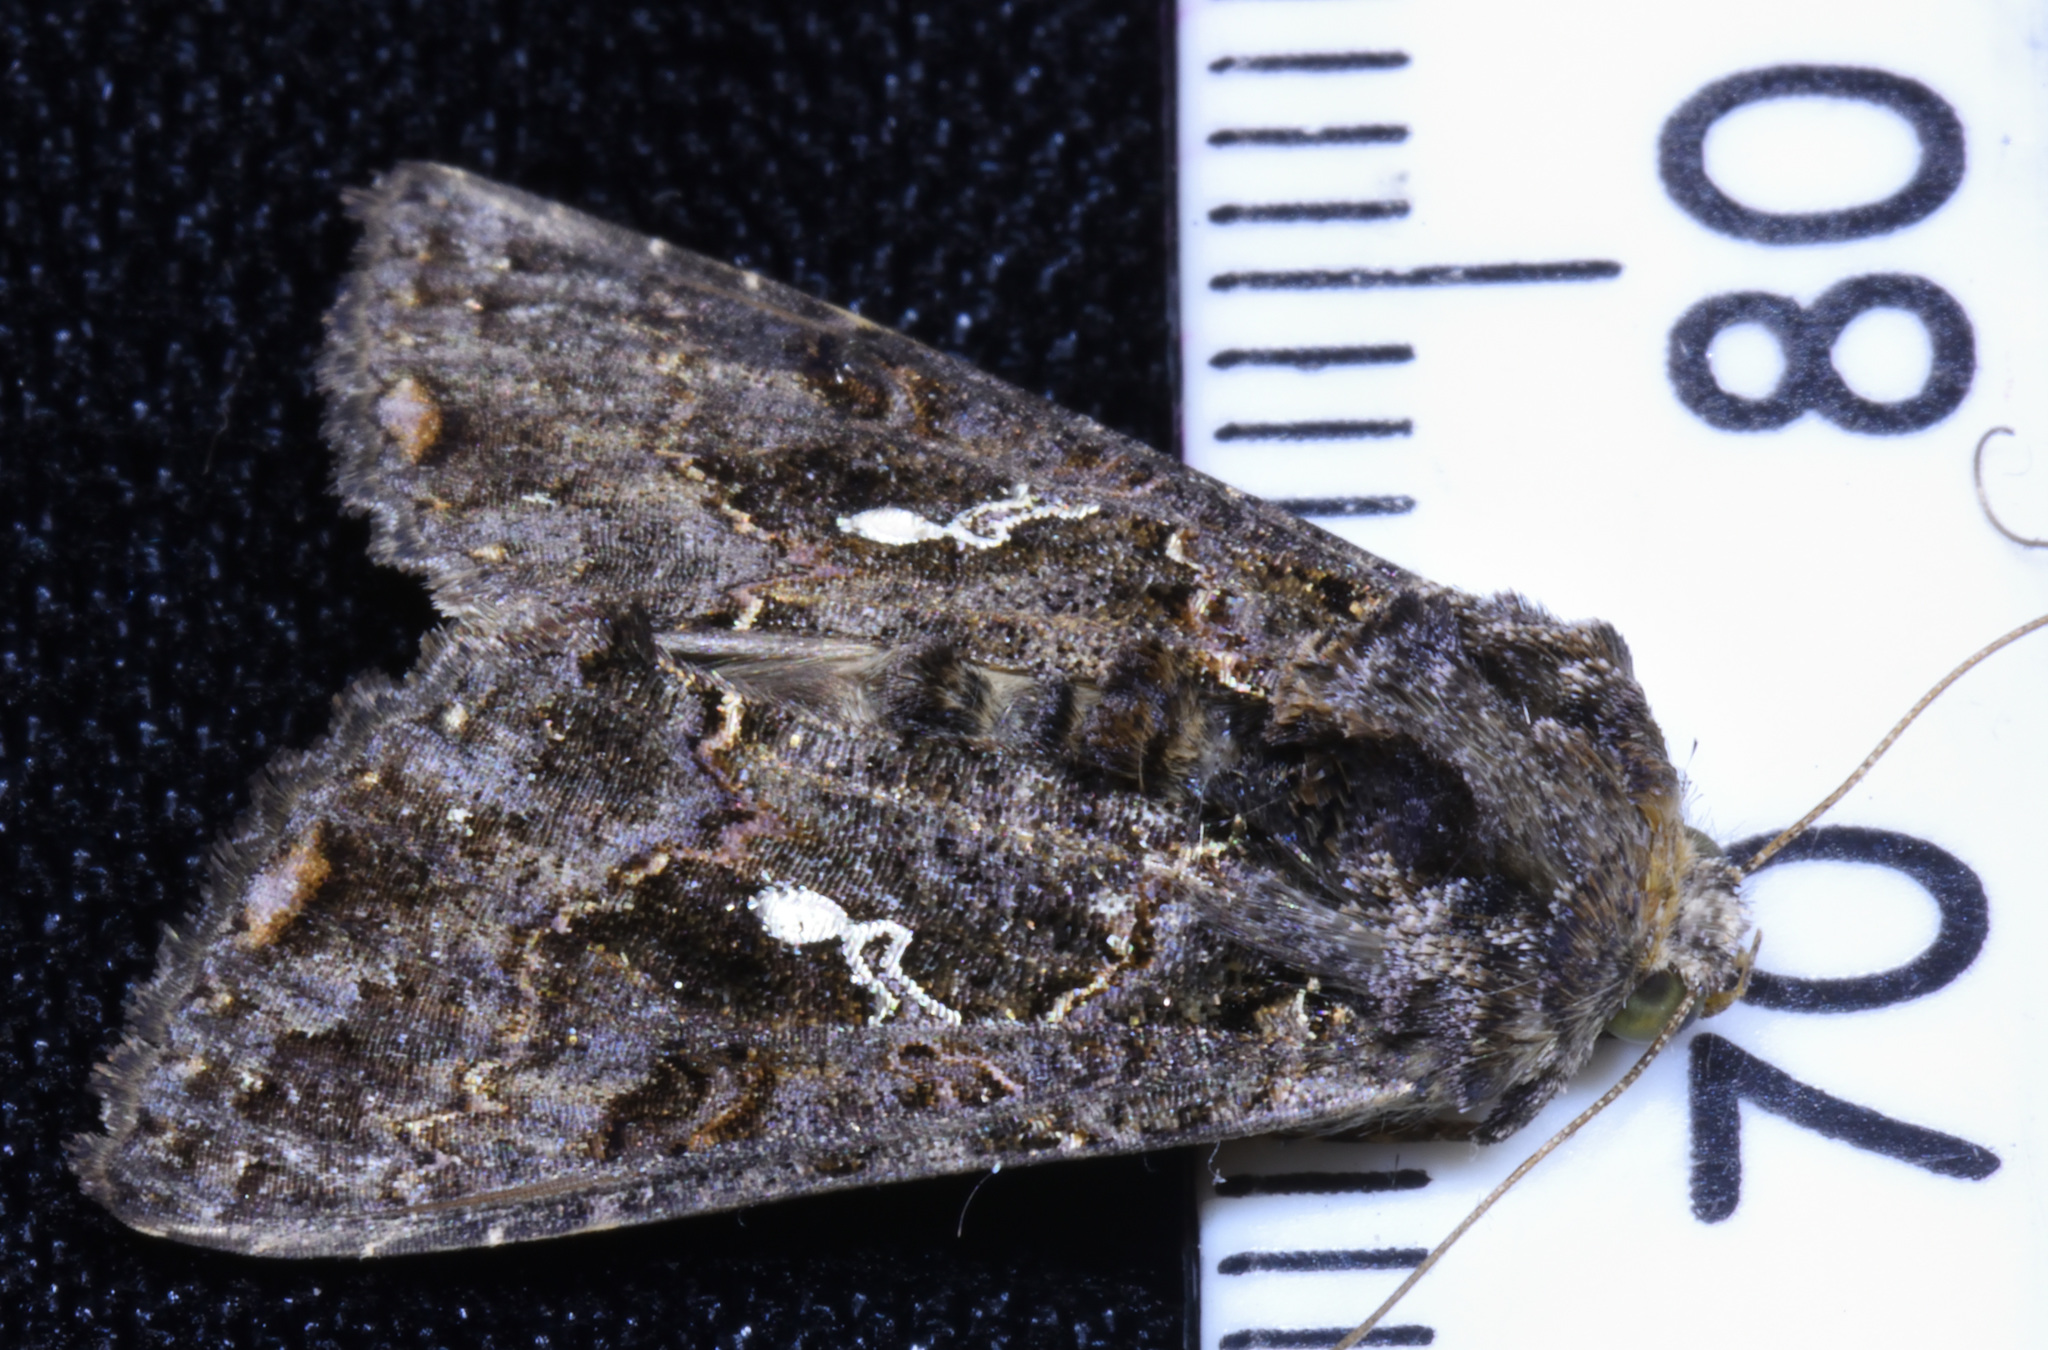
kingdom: Animalia
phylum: Arthropoda
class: Insecta
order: Lepidoptera
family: Noctuidae
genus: Ctenoplusia
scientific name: Ctenoplusia limbirena
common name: Scar bank gem
